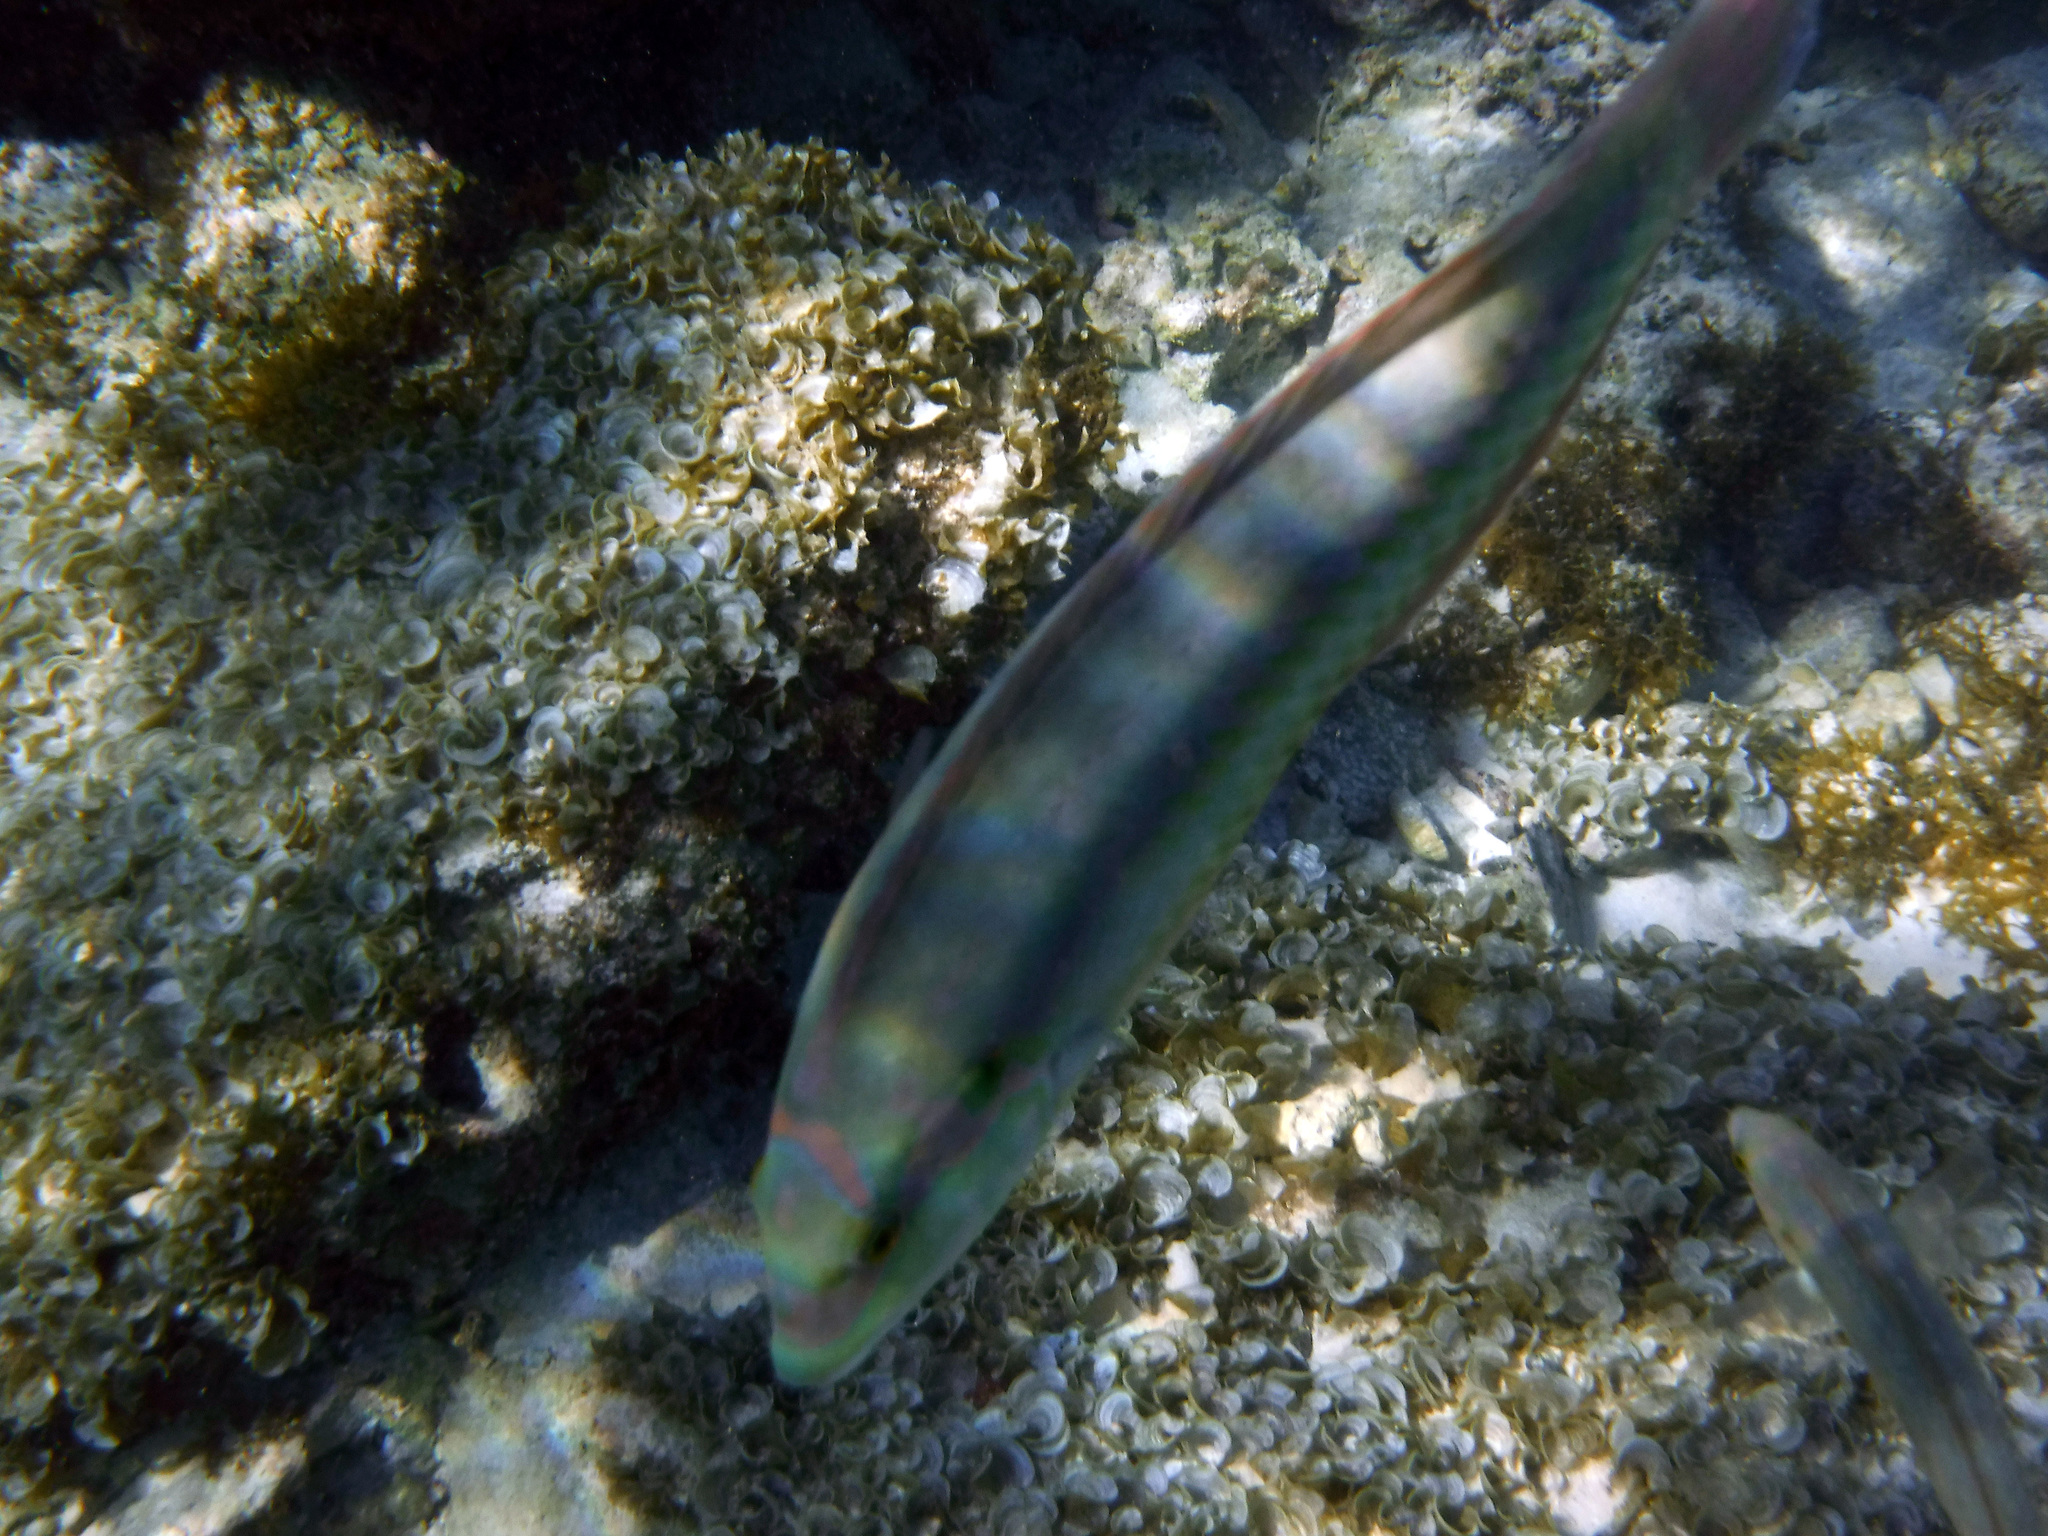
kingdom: Animalia
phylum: Chordata
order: Perciformes
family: Labridae
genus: Halichoeres
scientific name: Halichoeres bivittatus
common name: Slippery dick
